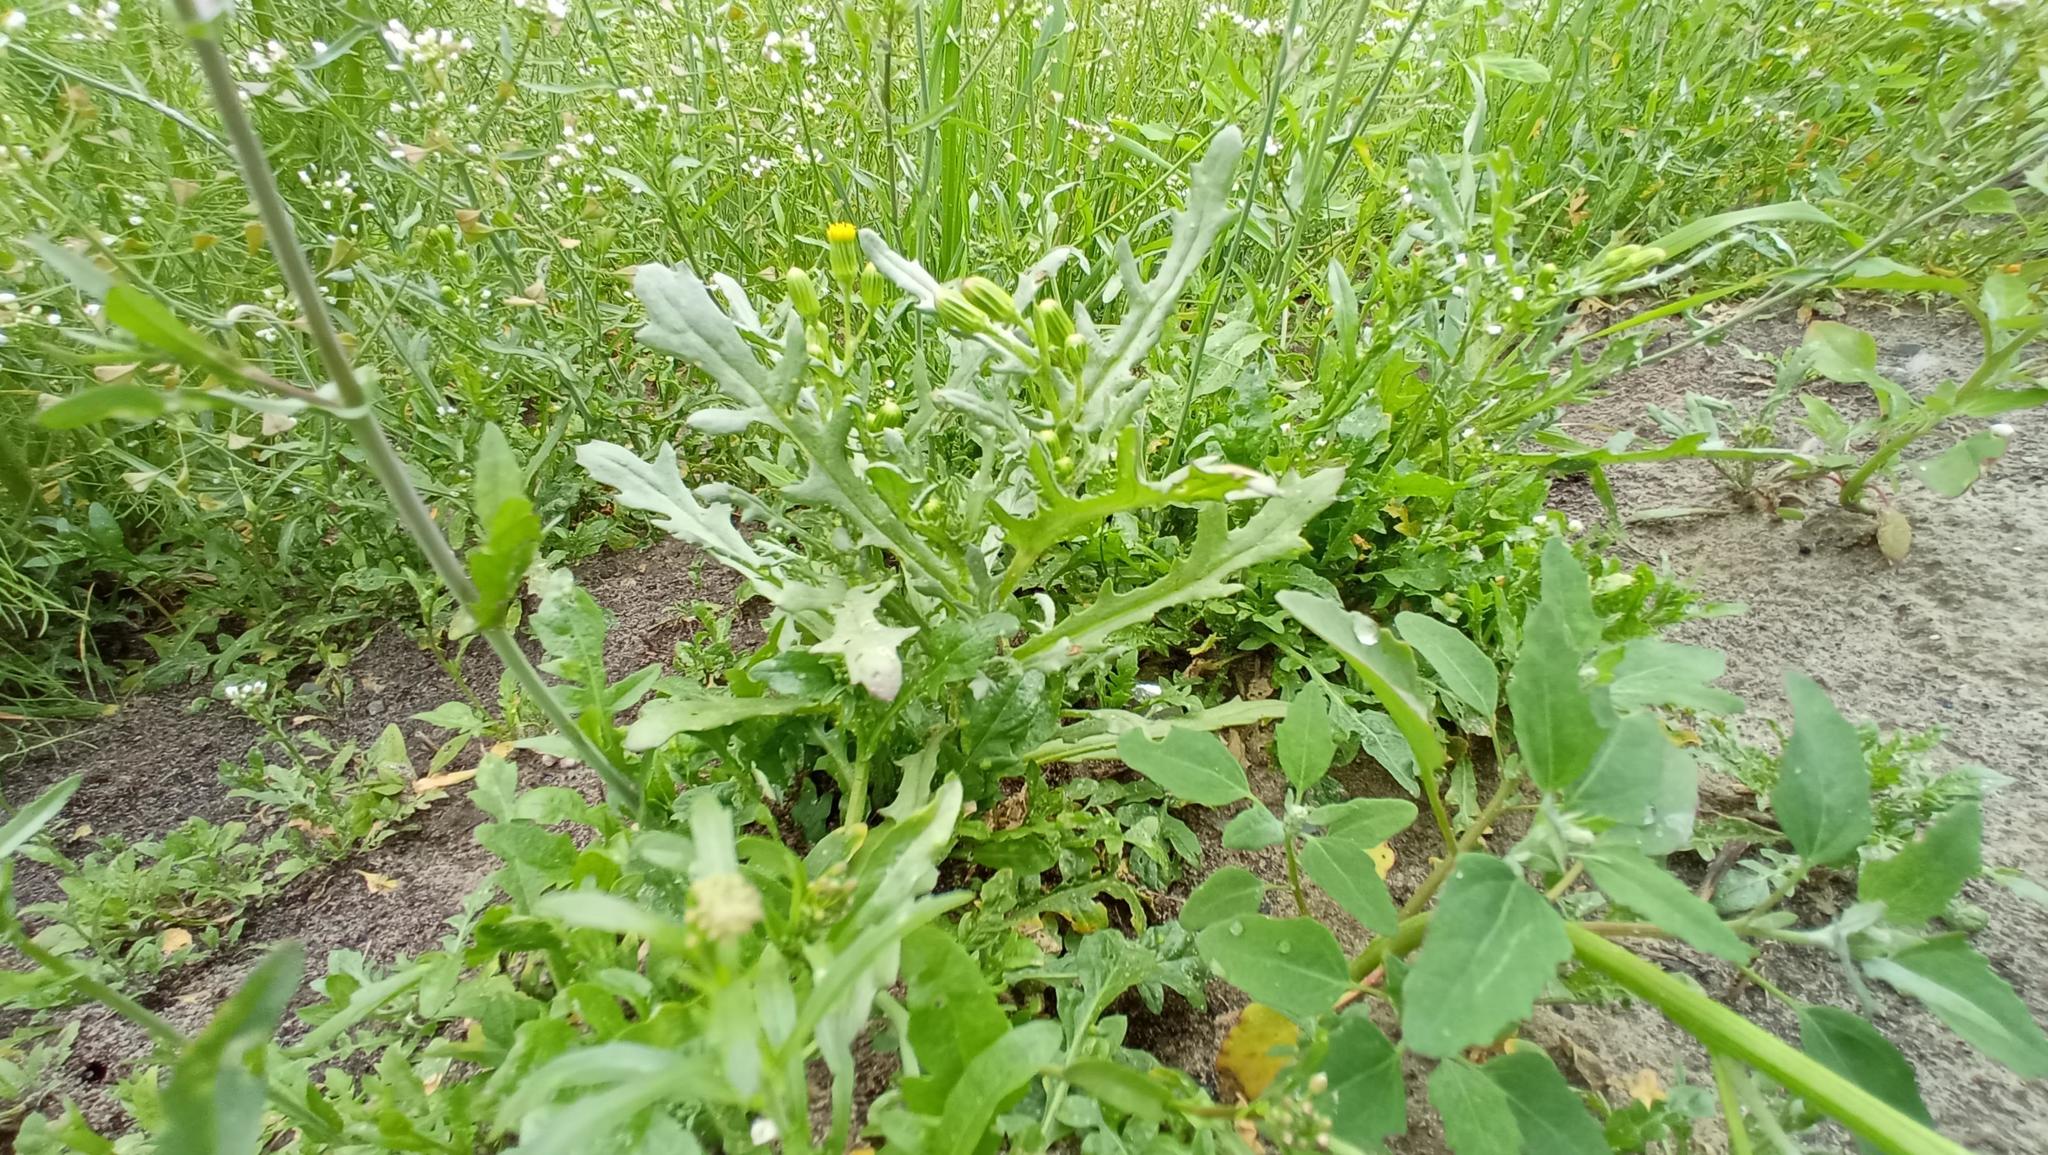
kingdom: Plantae
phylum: Tracheophyta
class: Magnoliopsida
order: Asterales
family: Asteraceae
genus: Senecio
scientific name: Senecio vulgaris
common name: Old-man-in-the-spring
